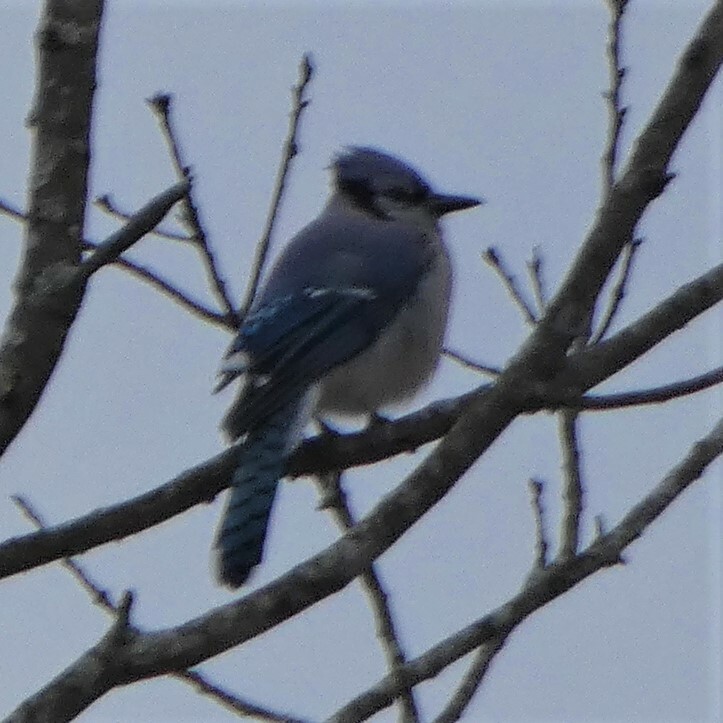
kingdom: Animalia
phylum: Chordata
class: Aves
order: Passeriformes
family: Corvidae
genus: Cyanocitta
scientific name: Cyanocitta cristata
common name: Blue jay
